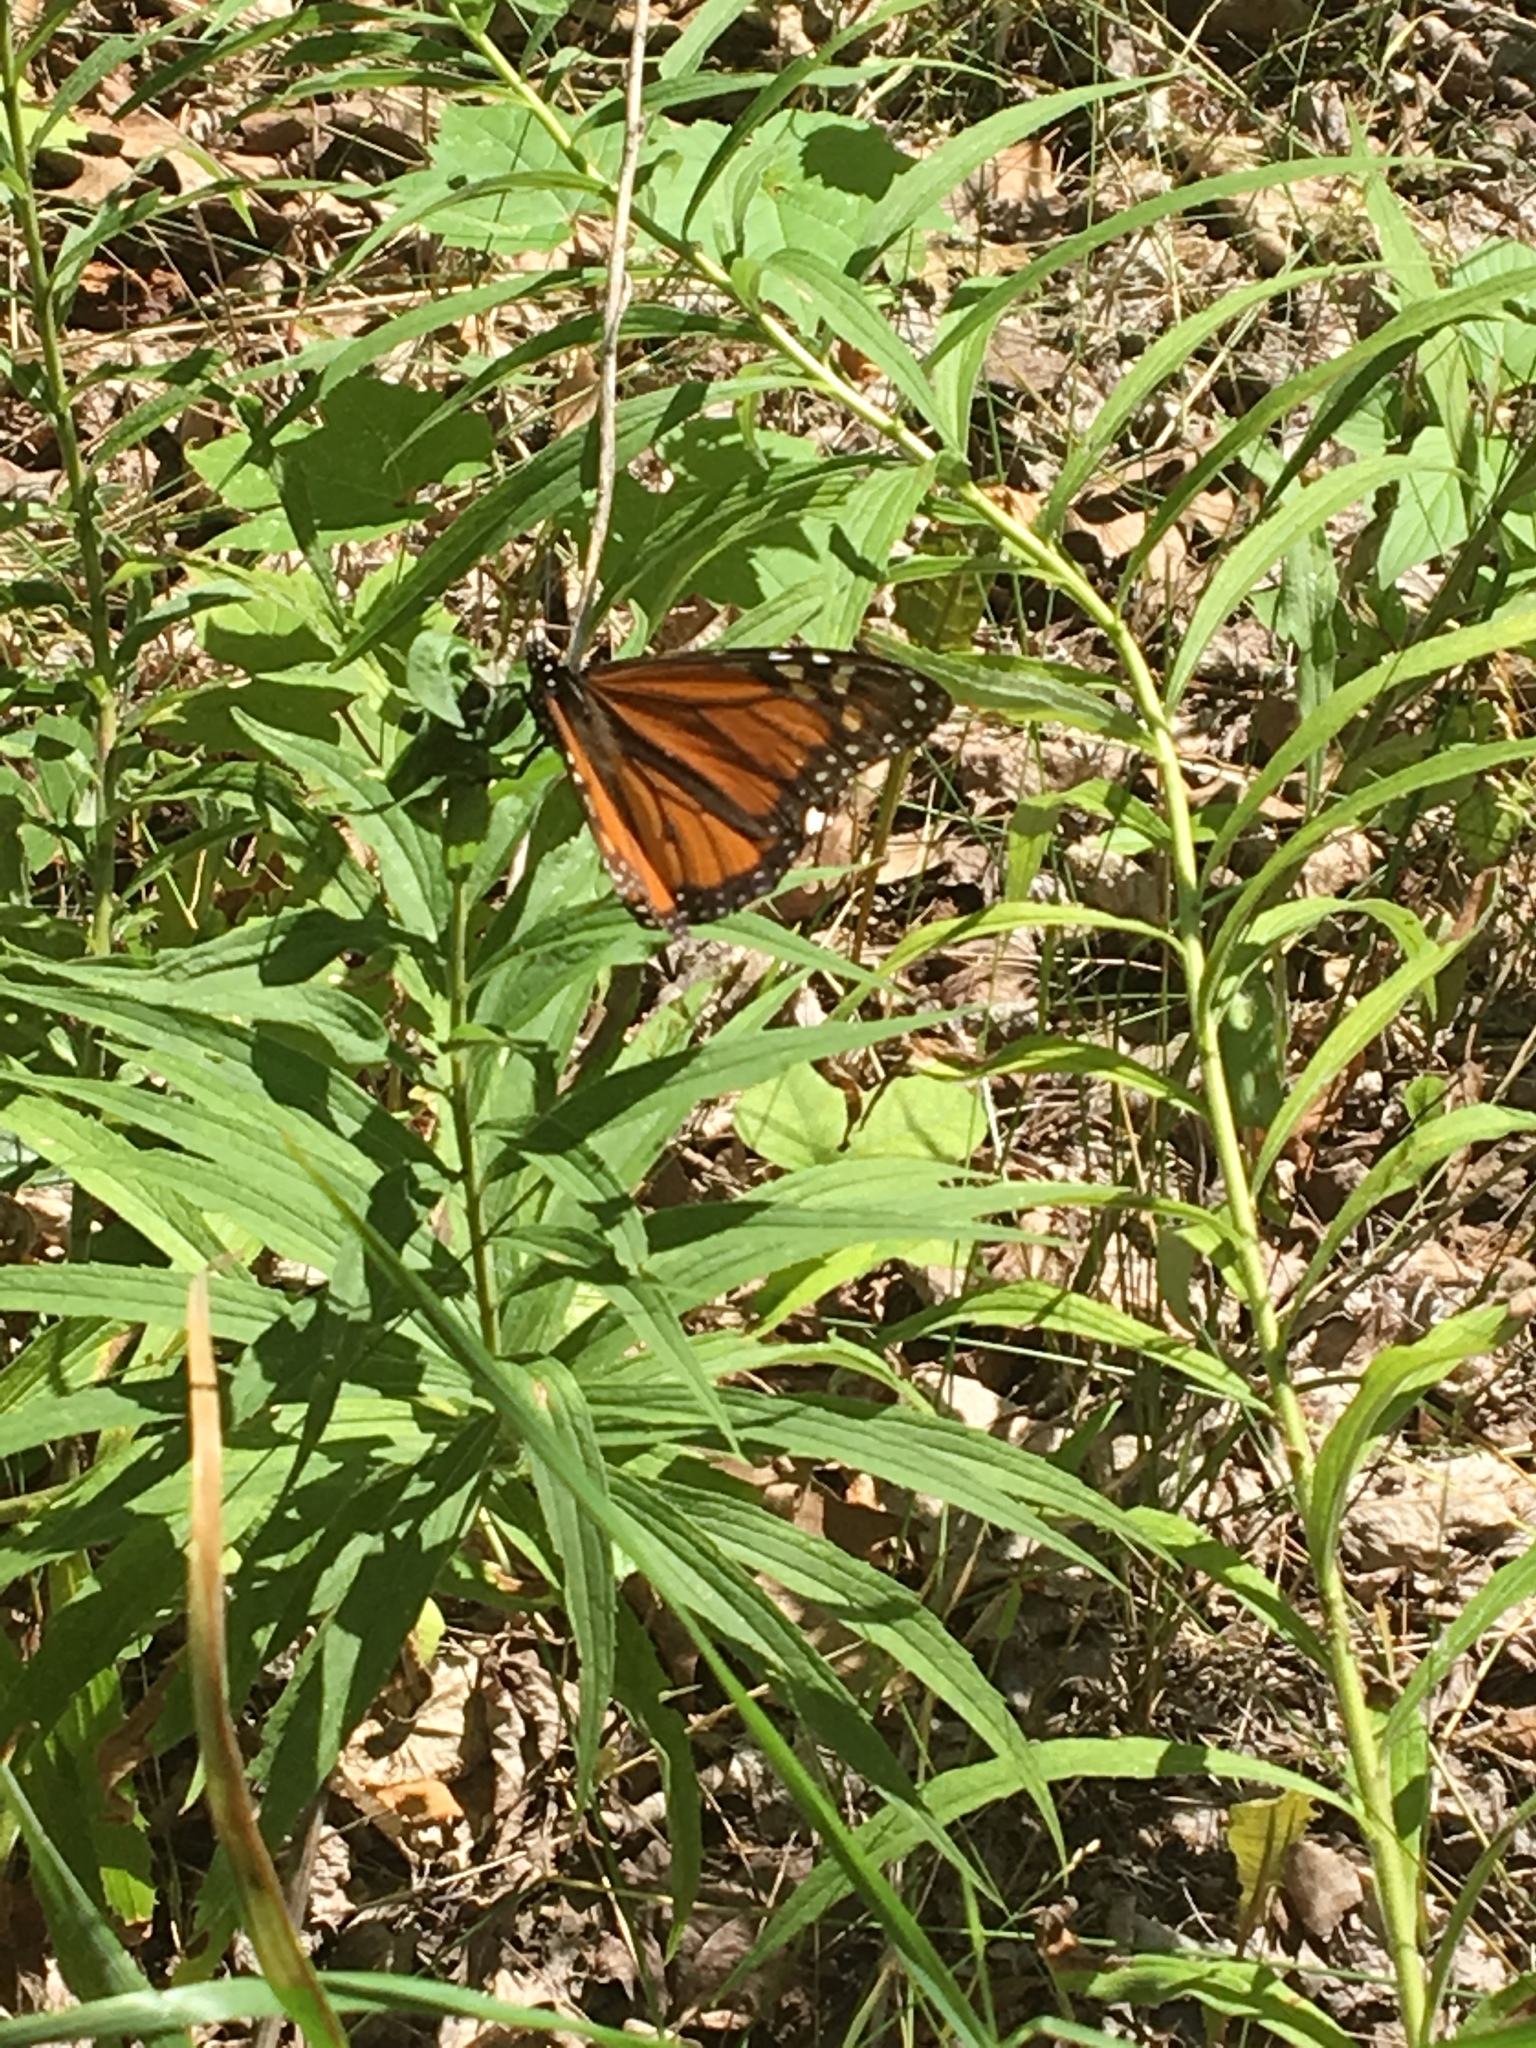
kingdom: Animalia
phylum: Arthropoda
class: Insecta
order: Lepidoptera
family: Nymphalidae
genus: Danaus
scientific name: Danaus plexippus
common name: Monarch
